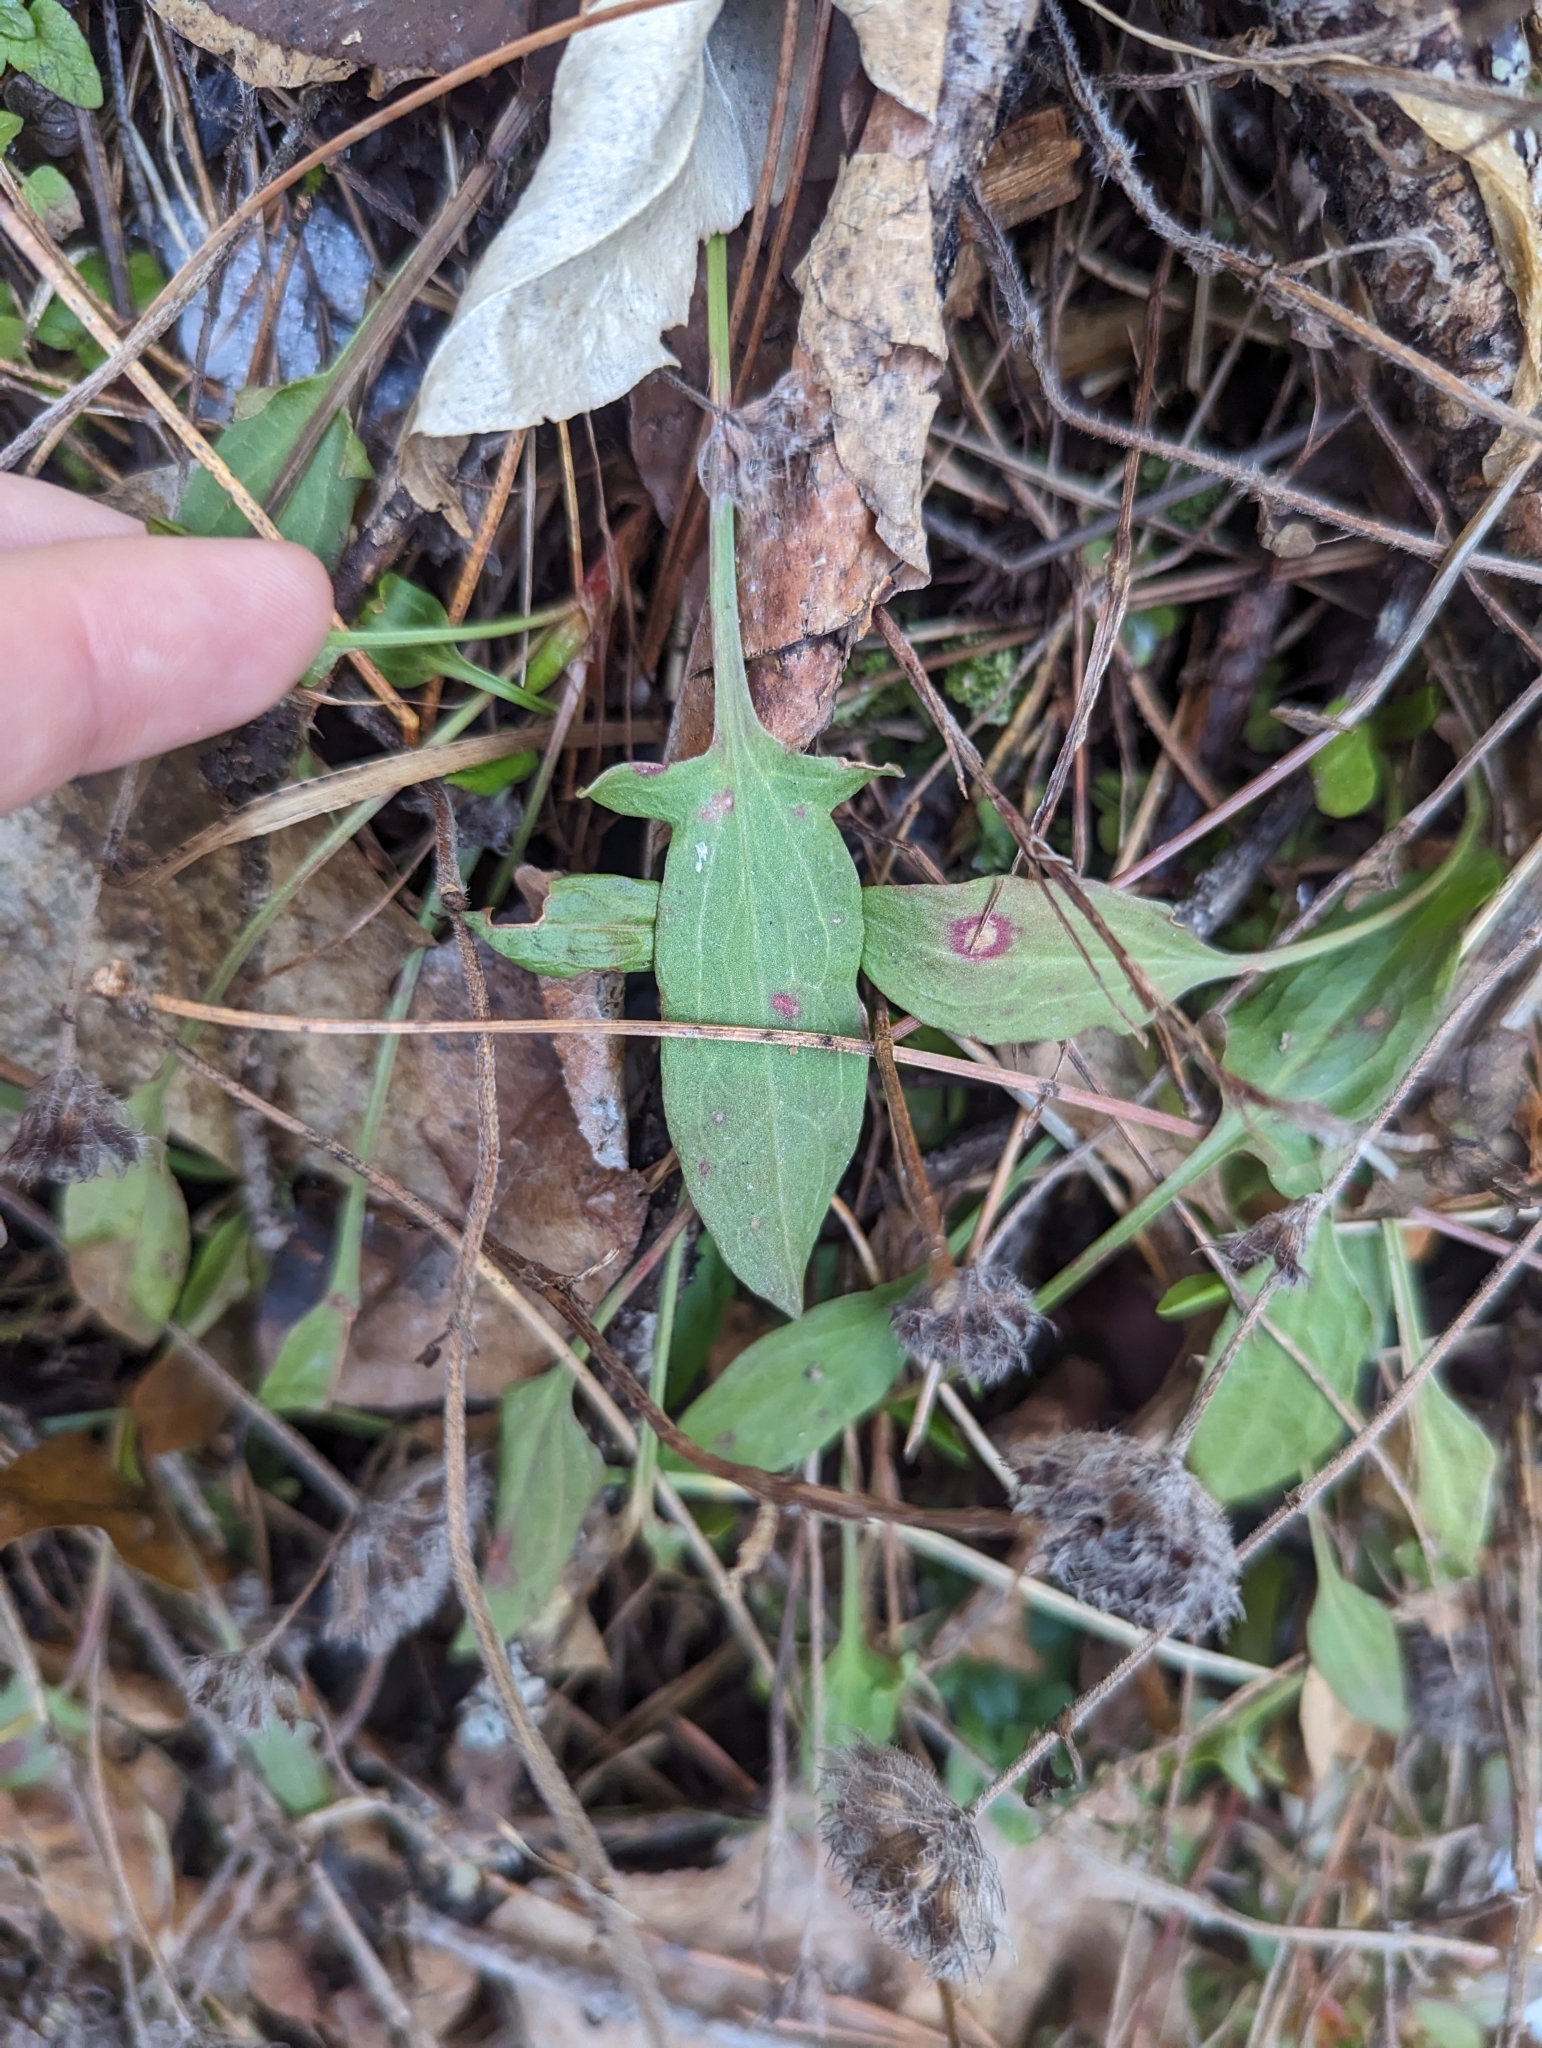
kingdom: Plantae
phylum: Tracheophyta
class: Magnoliopsida
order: Caryophyllales
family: Polygonaceae
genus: Rumex
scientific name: Rumex acetosella
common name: Common sheep sorrel
